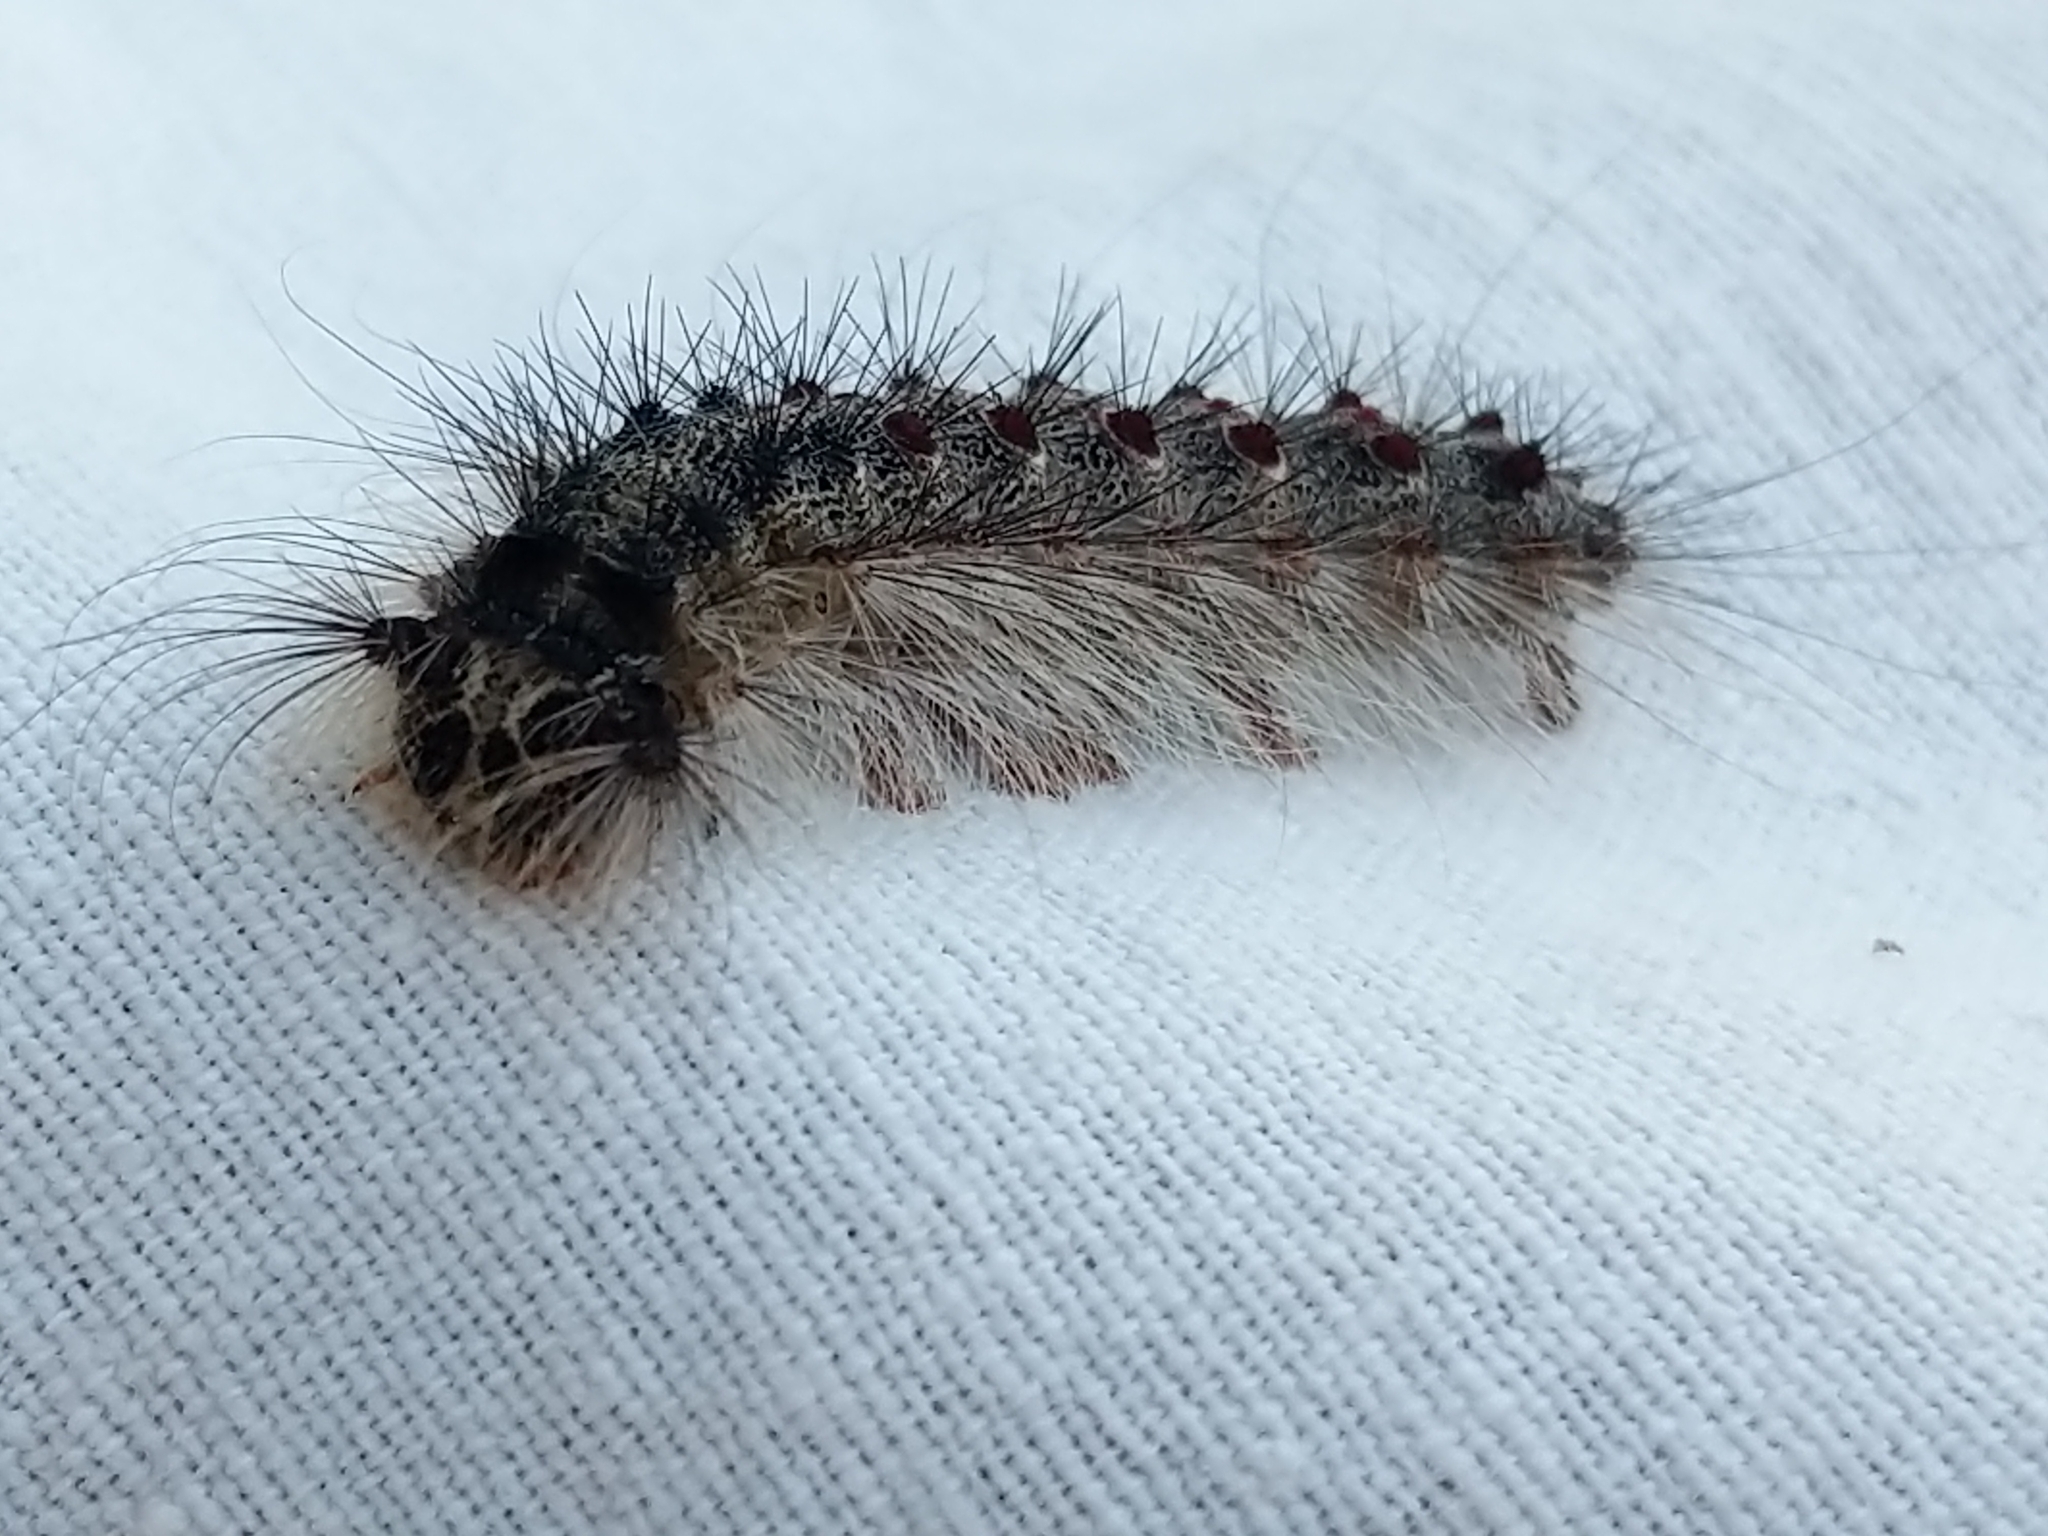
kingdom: Animalia
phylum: Arthropoda
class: Insecta
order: Lepidoptera
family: Erebidae
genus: Lymantria
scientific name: Lymantria dispar
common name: Gypsy moth
